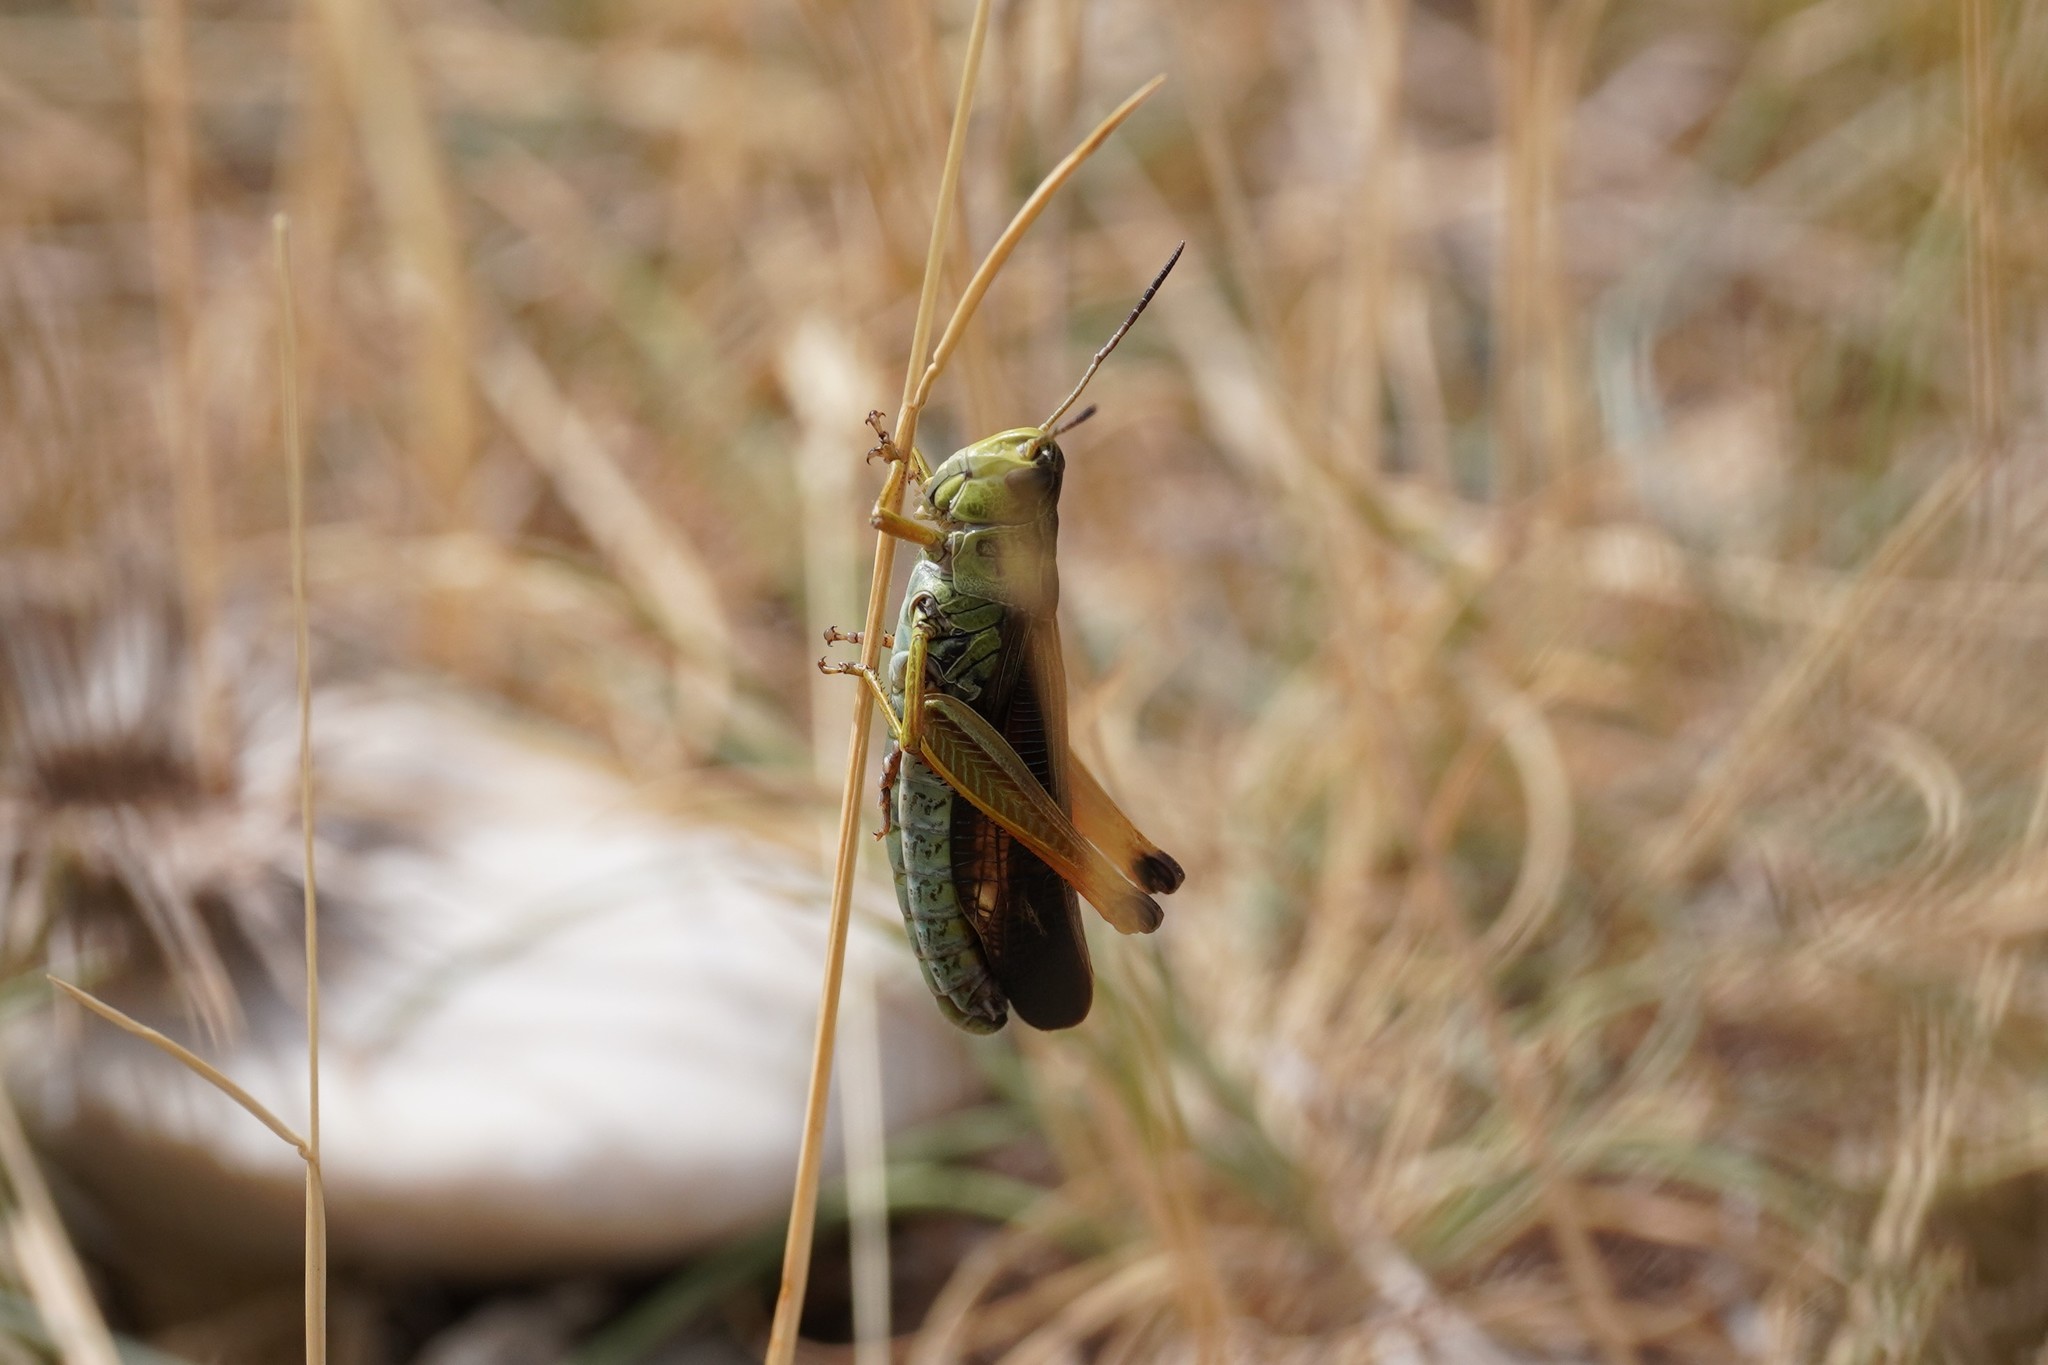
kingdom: Animalia
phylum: Arthropoda
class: Insecta
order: Orthoptera
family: Acrididae
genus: Stauroderus
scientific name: Stauroderus scalaris
